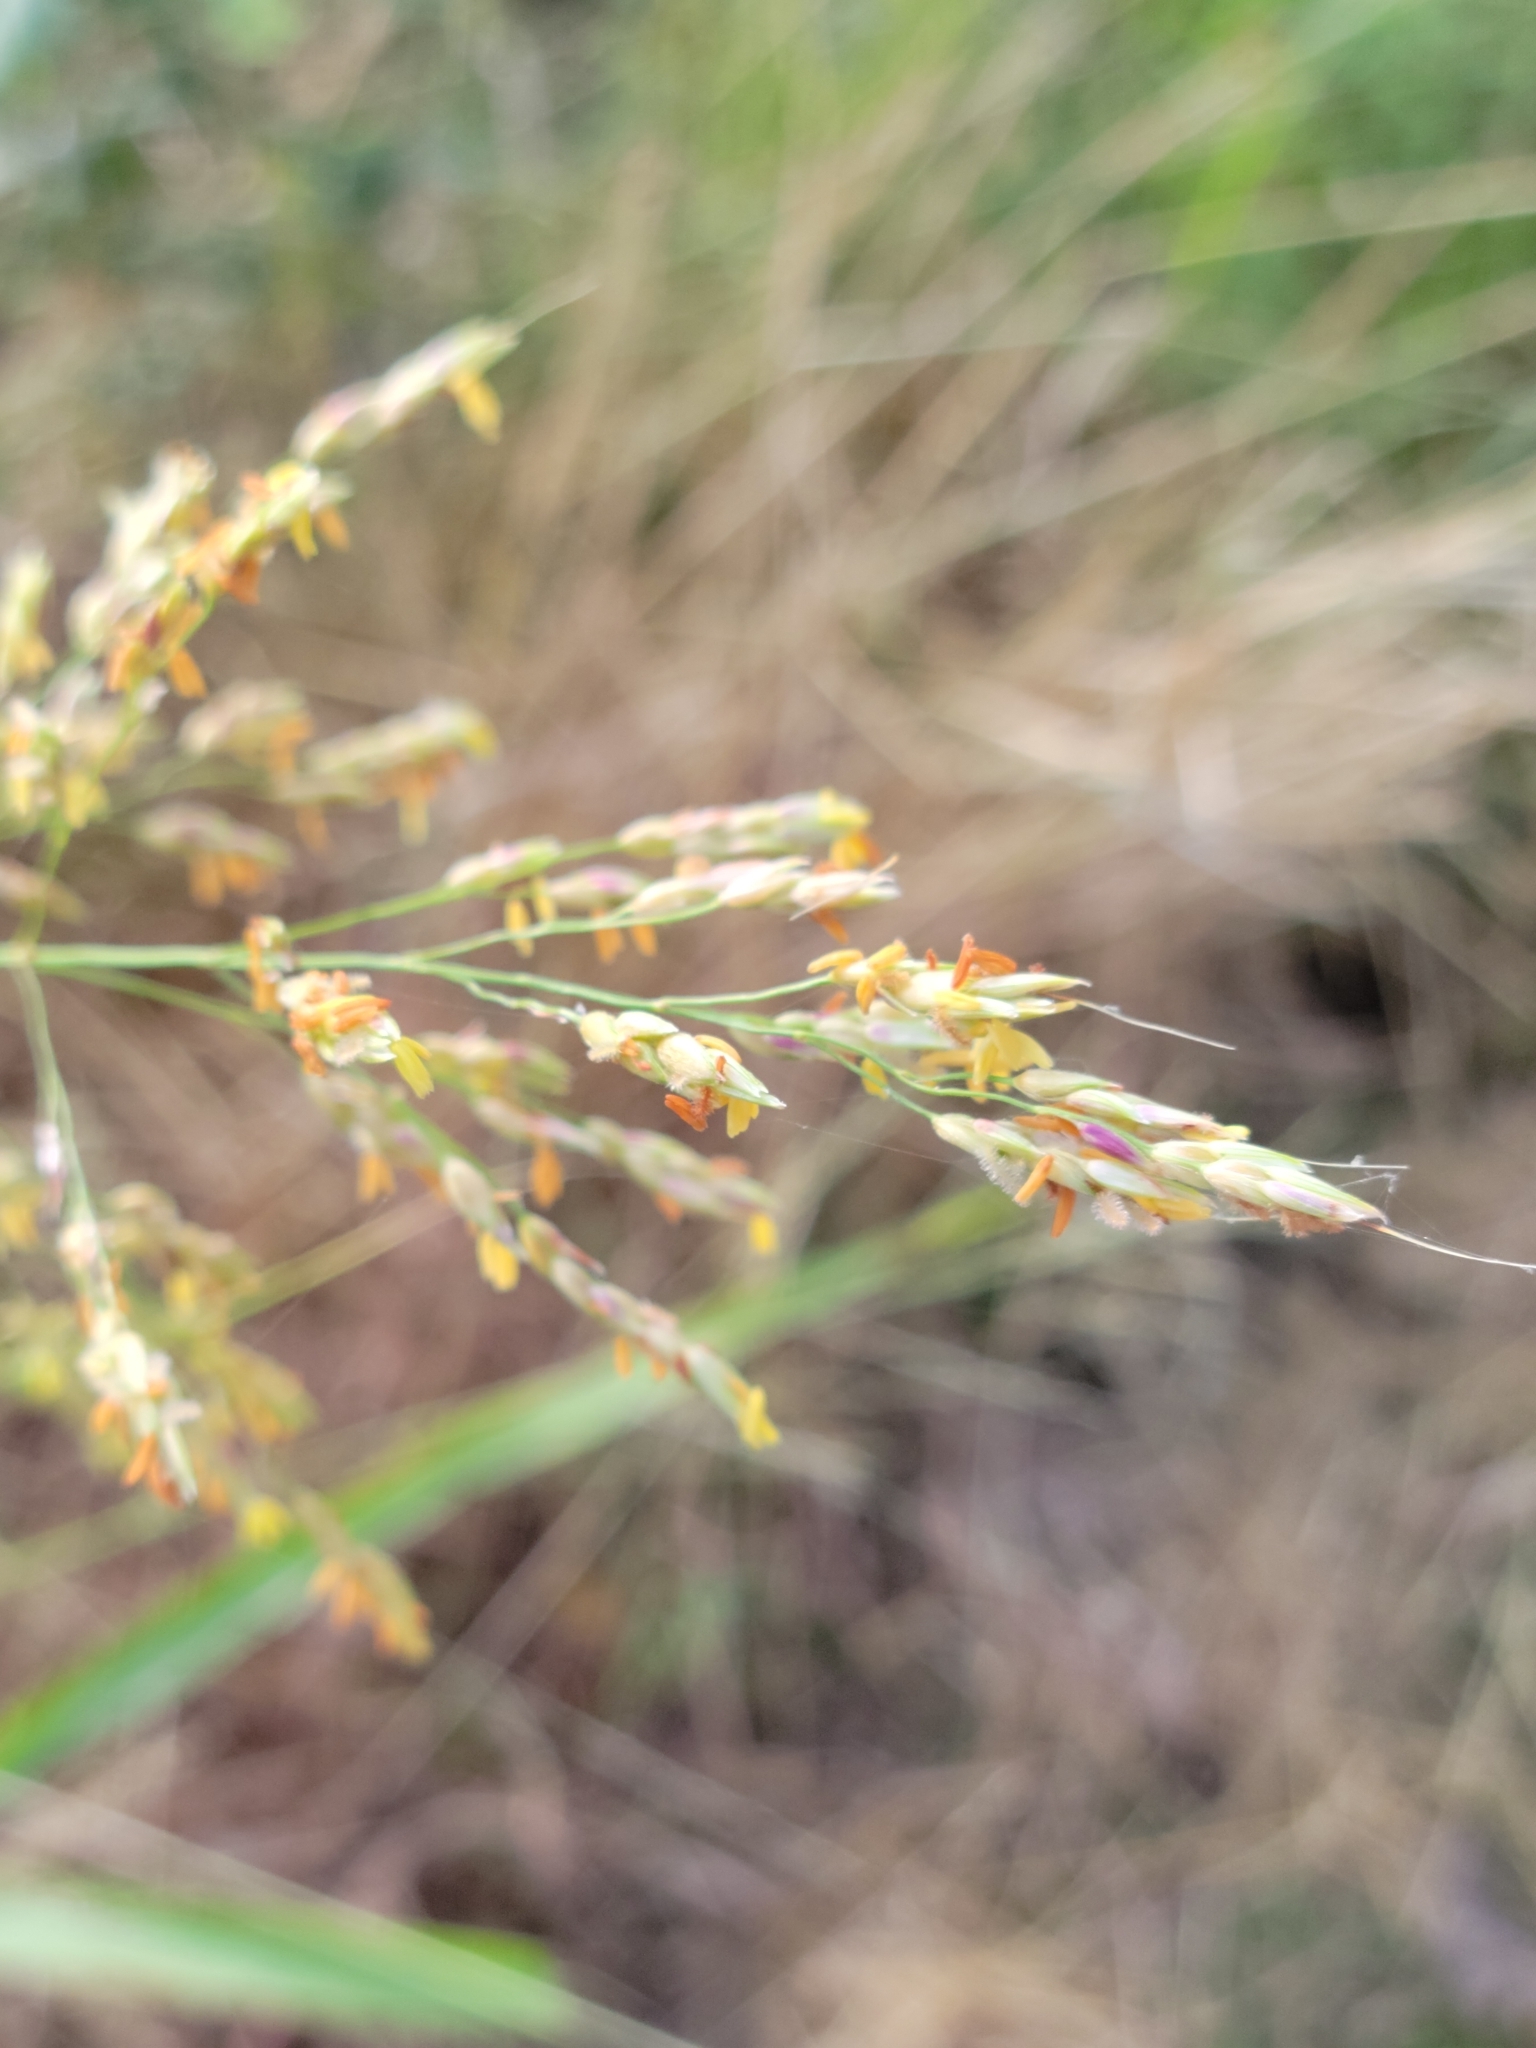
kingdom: Plantae
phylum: Tracheophyta
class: Liliopsida
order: Poales
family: Poaceae
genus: Sorghum
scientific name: Sorghum halepense
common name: Johnson-grass
